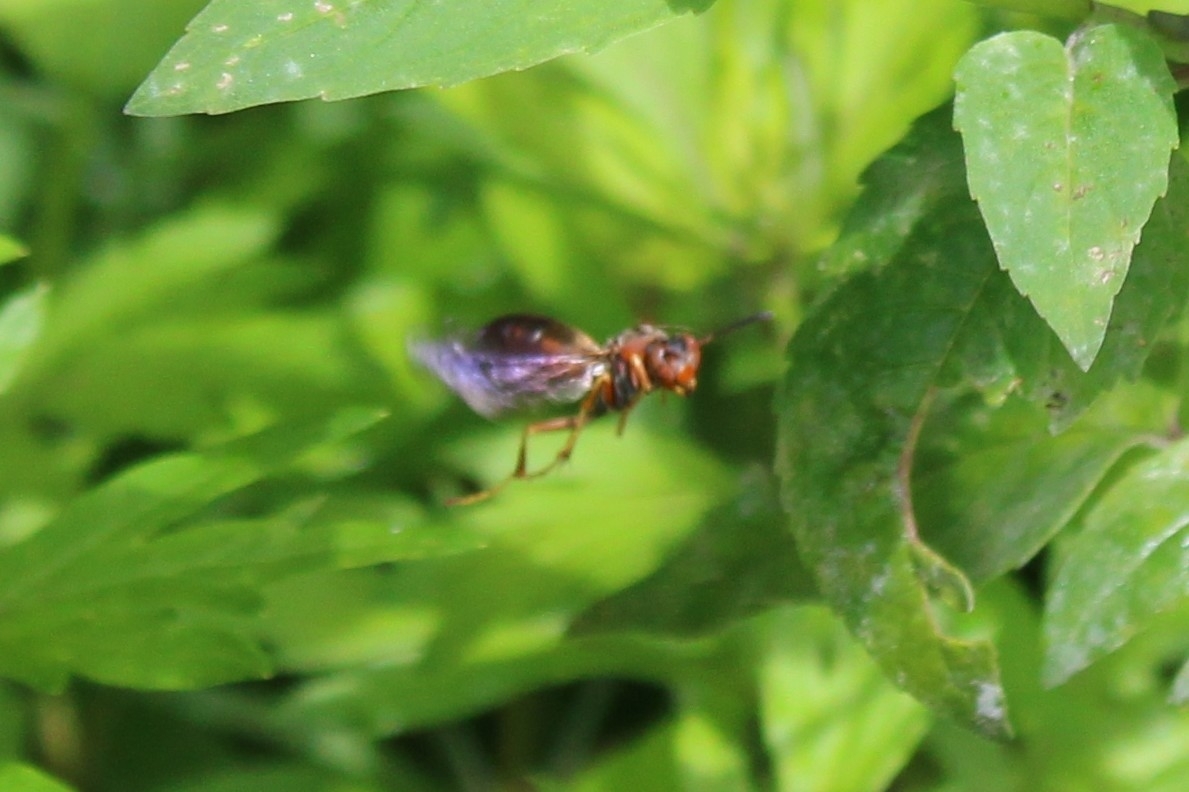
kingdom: Animalia
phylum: Arthropoda
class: Insecta
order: Hymenoptera
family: Eumenidae
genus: Polistes
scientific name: Polistes fuscatus
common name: Dark paper wasp
